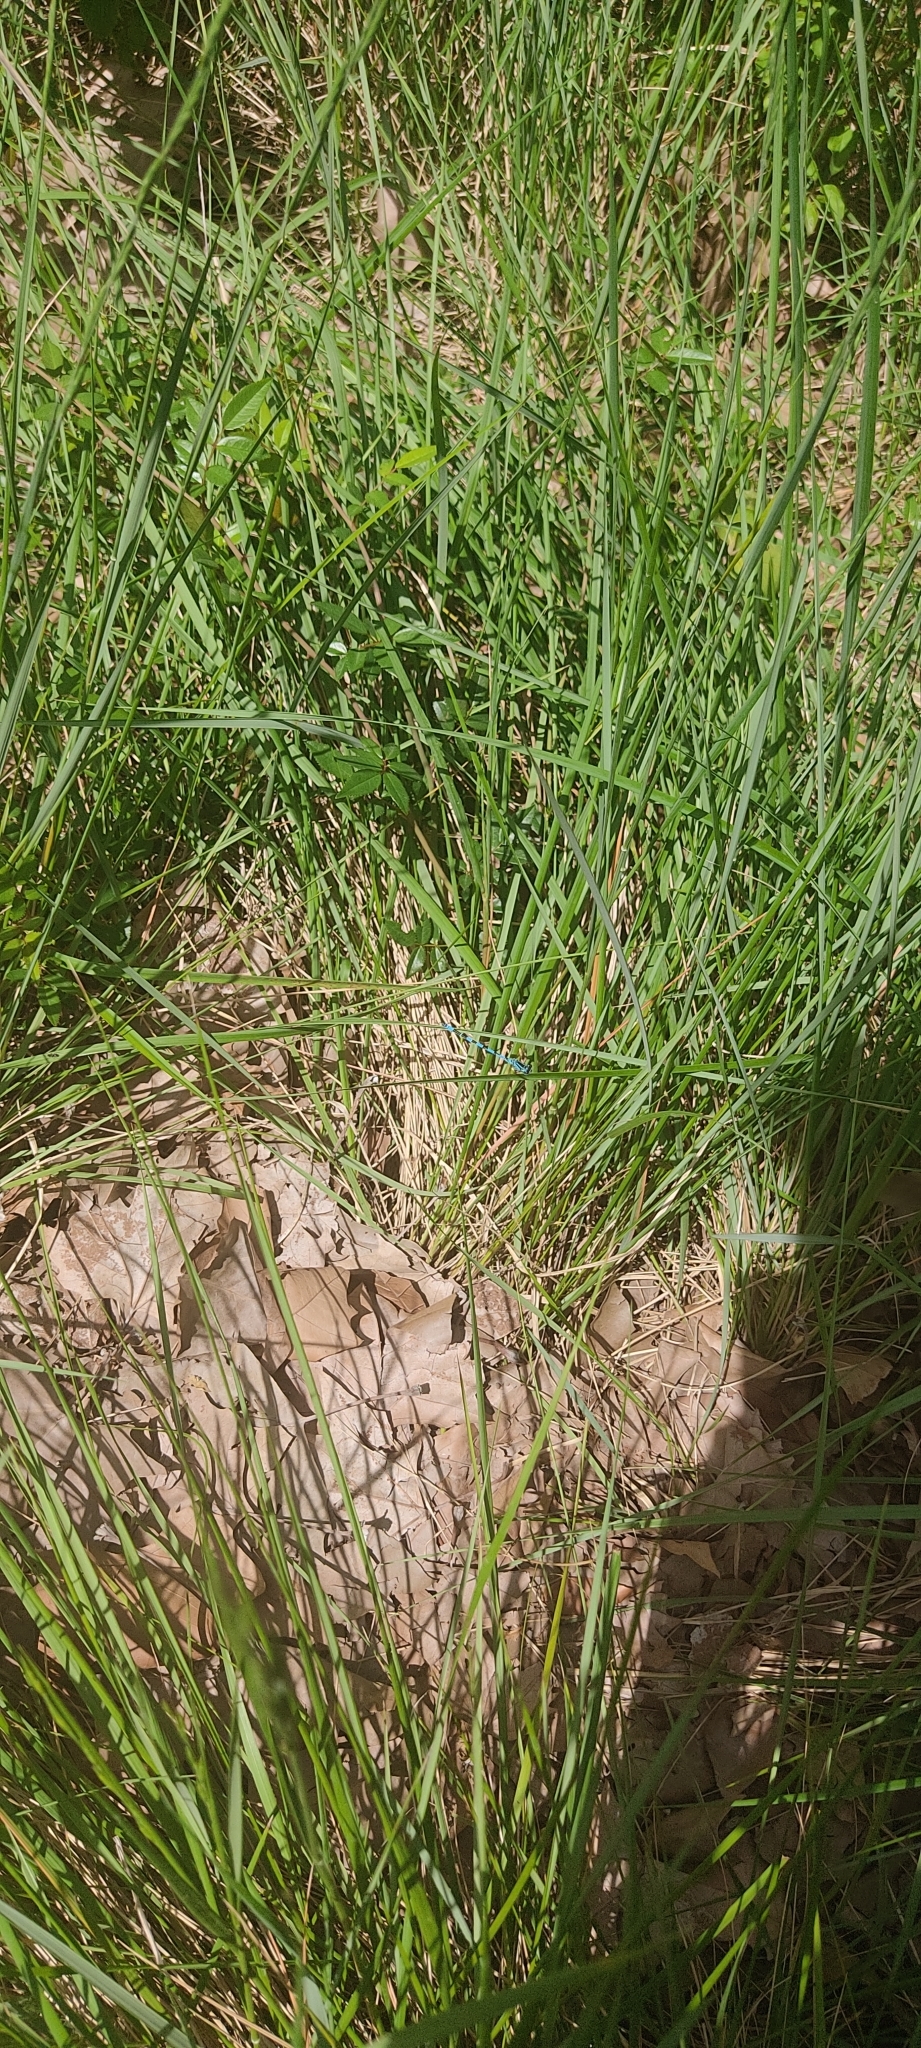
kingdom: Animalia
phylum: Arthropoda
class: Insecta
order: Odonata
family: Coenagrionidae
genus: Coenagrion
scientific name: Coenagrion mercuriale
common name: Southern damselfly
